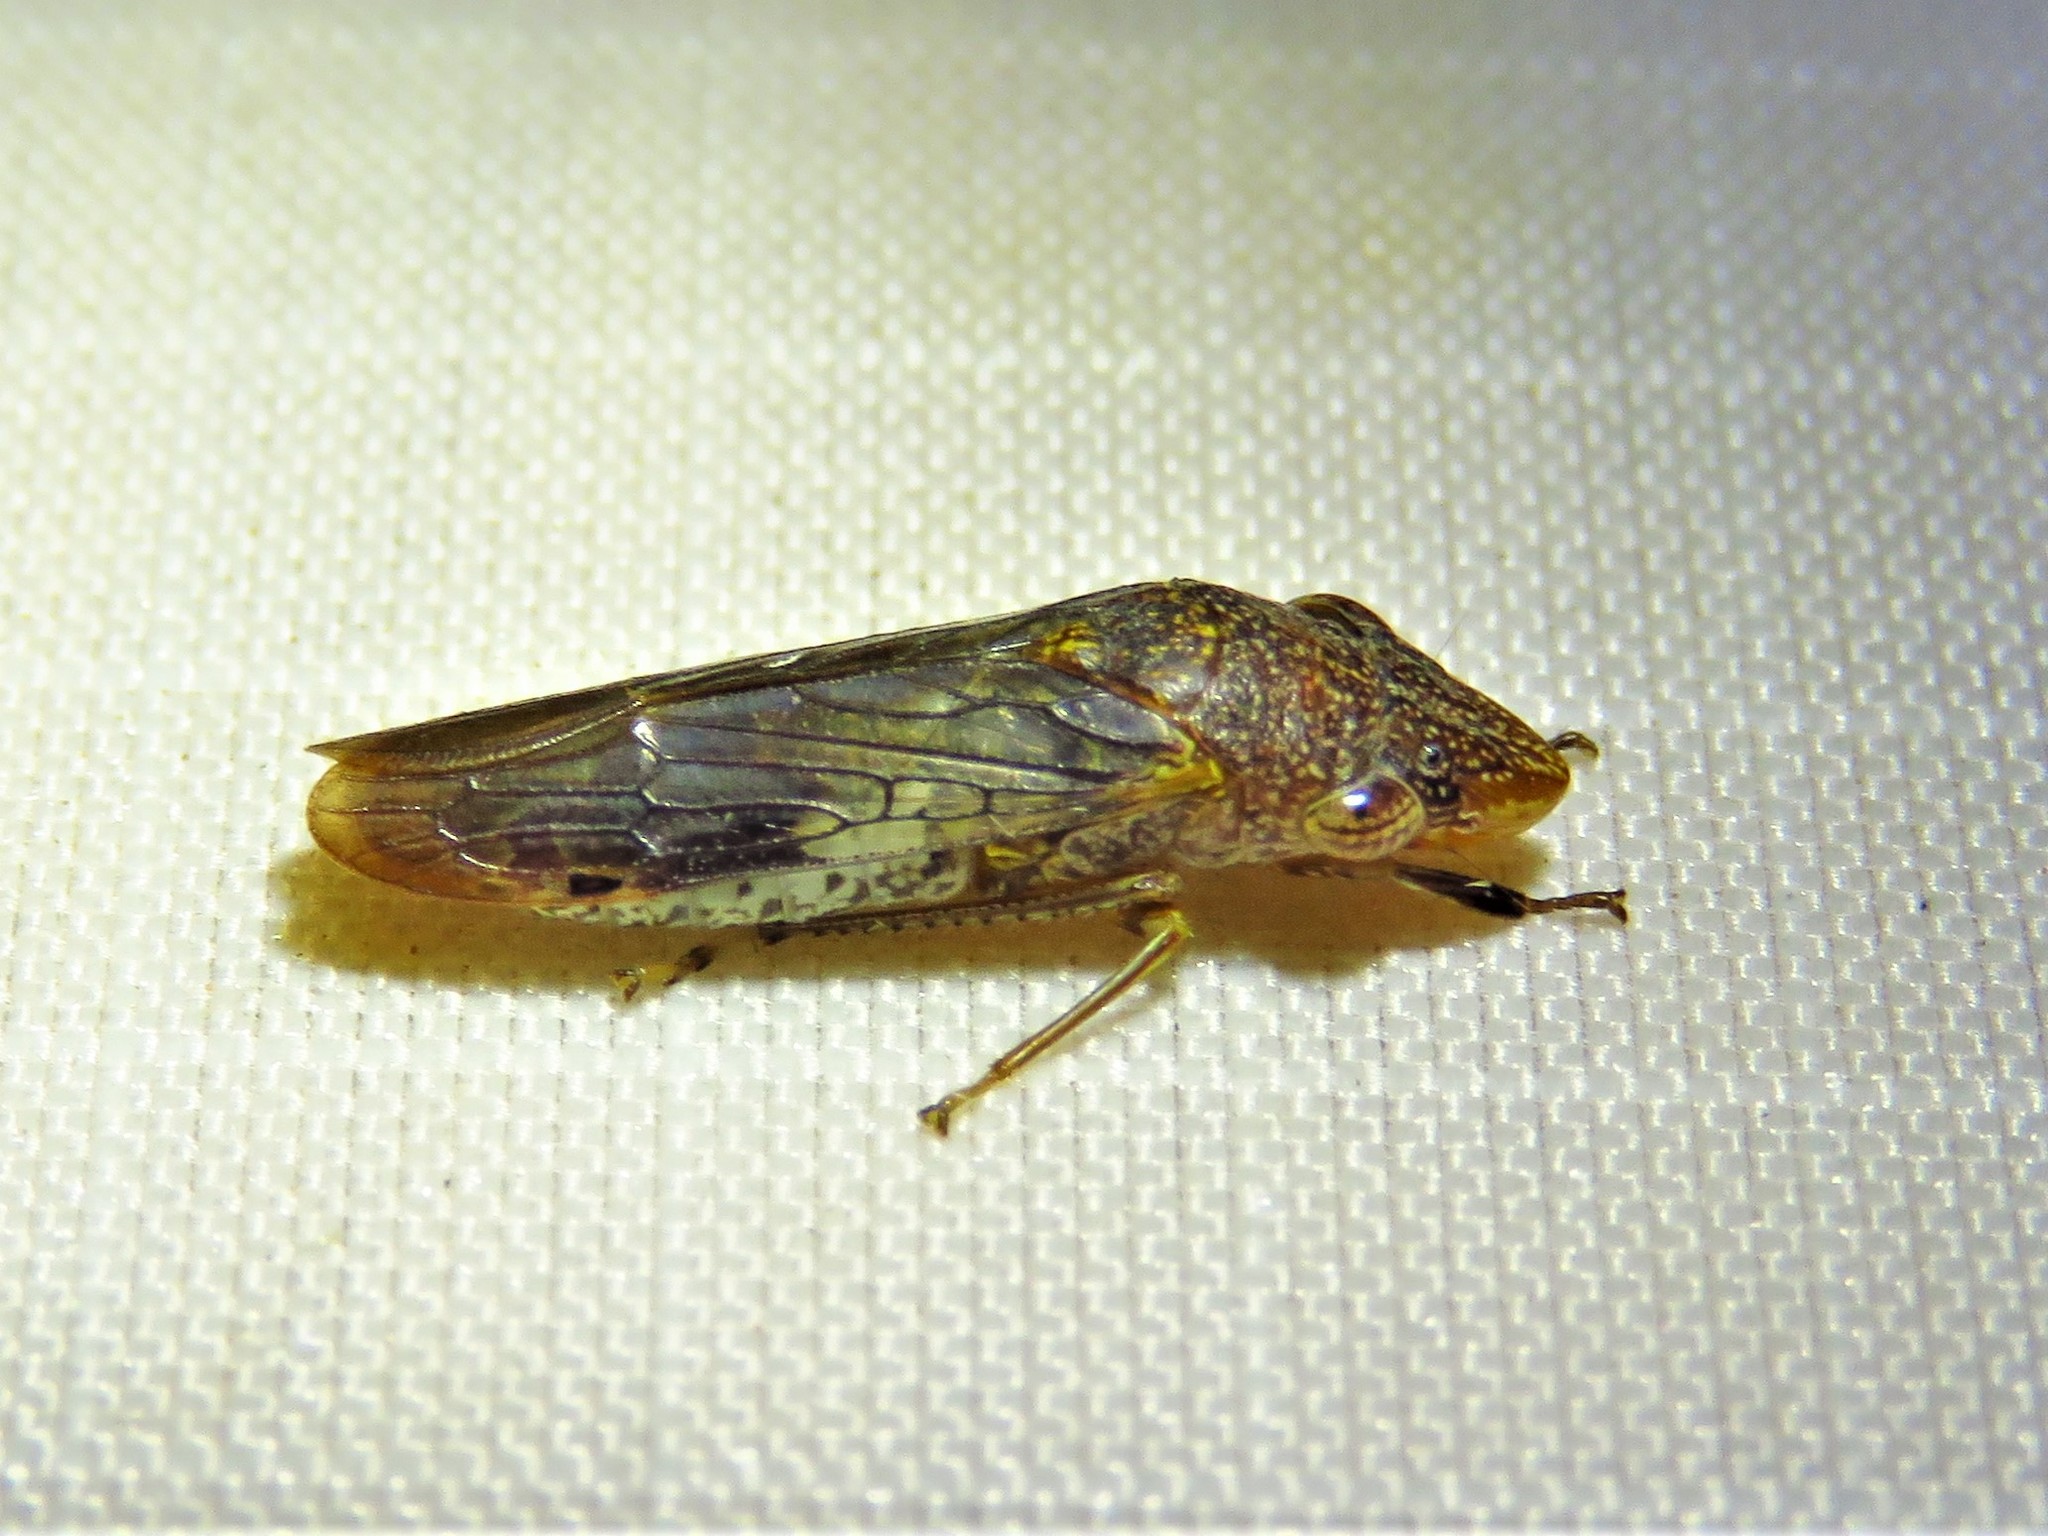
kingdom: Animalia
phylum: Arthropoda
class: Insecta
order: Hemiptera
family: Cicadellidae
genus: Homalodisca
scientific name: Homalodisca vitripennis
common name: Glassy-winged sharpshooter
